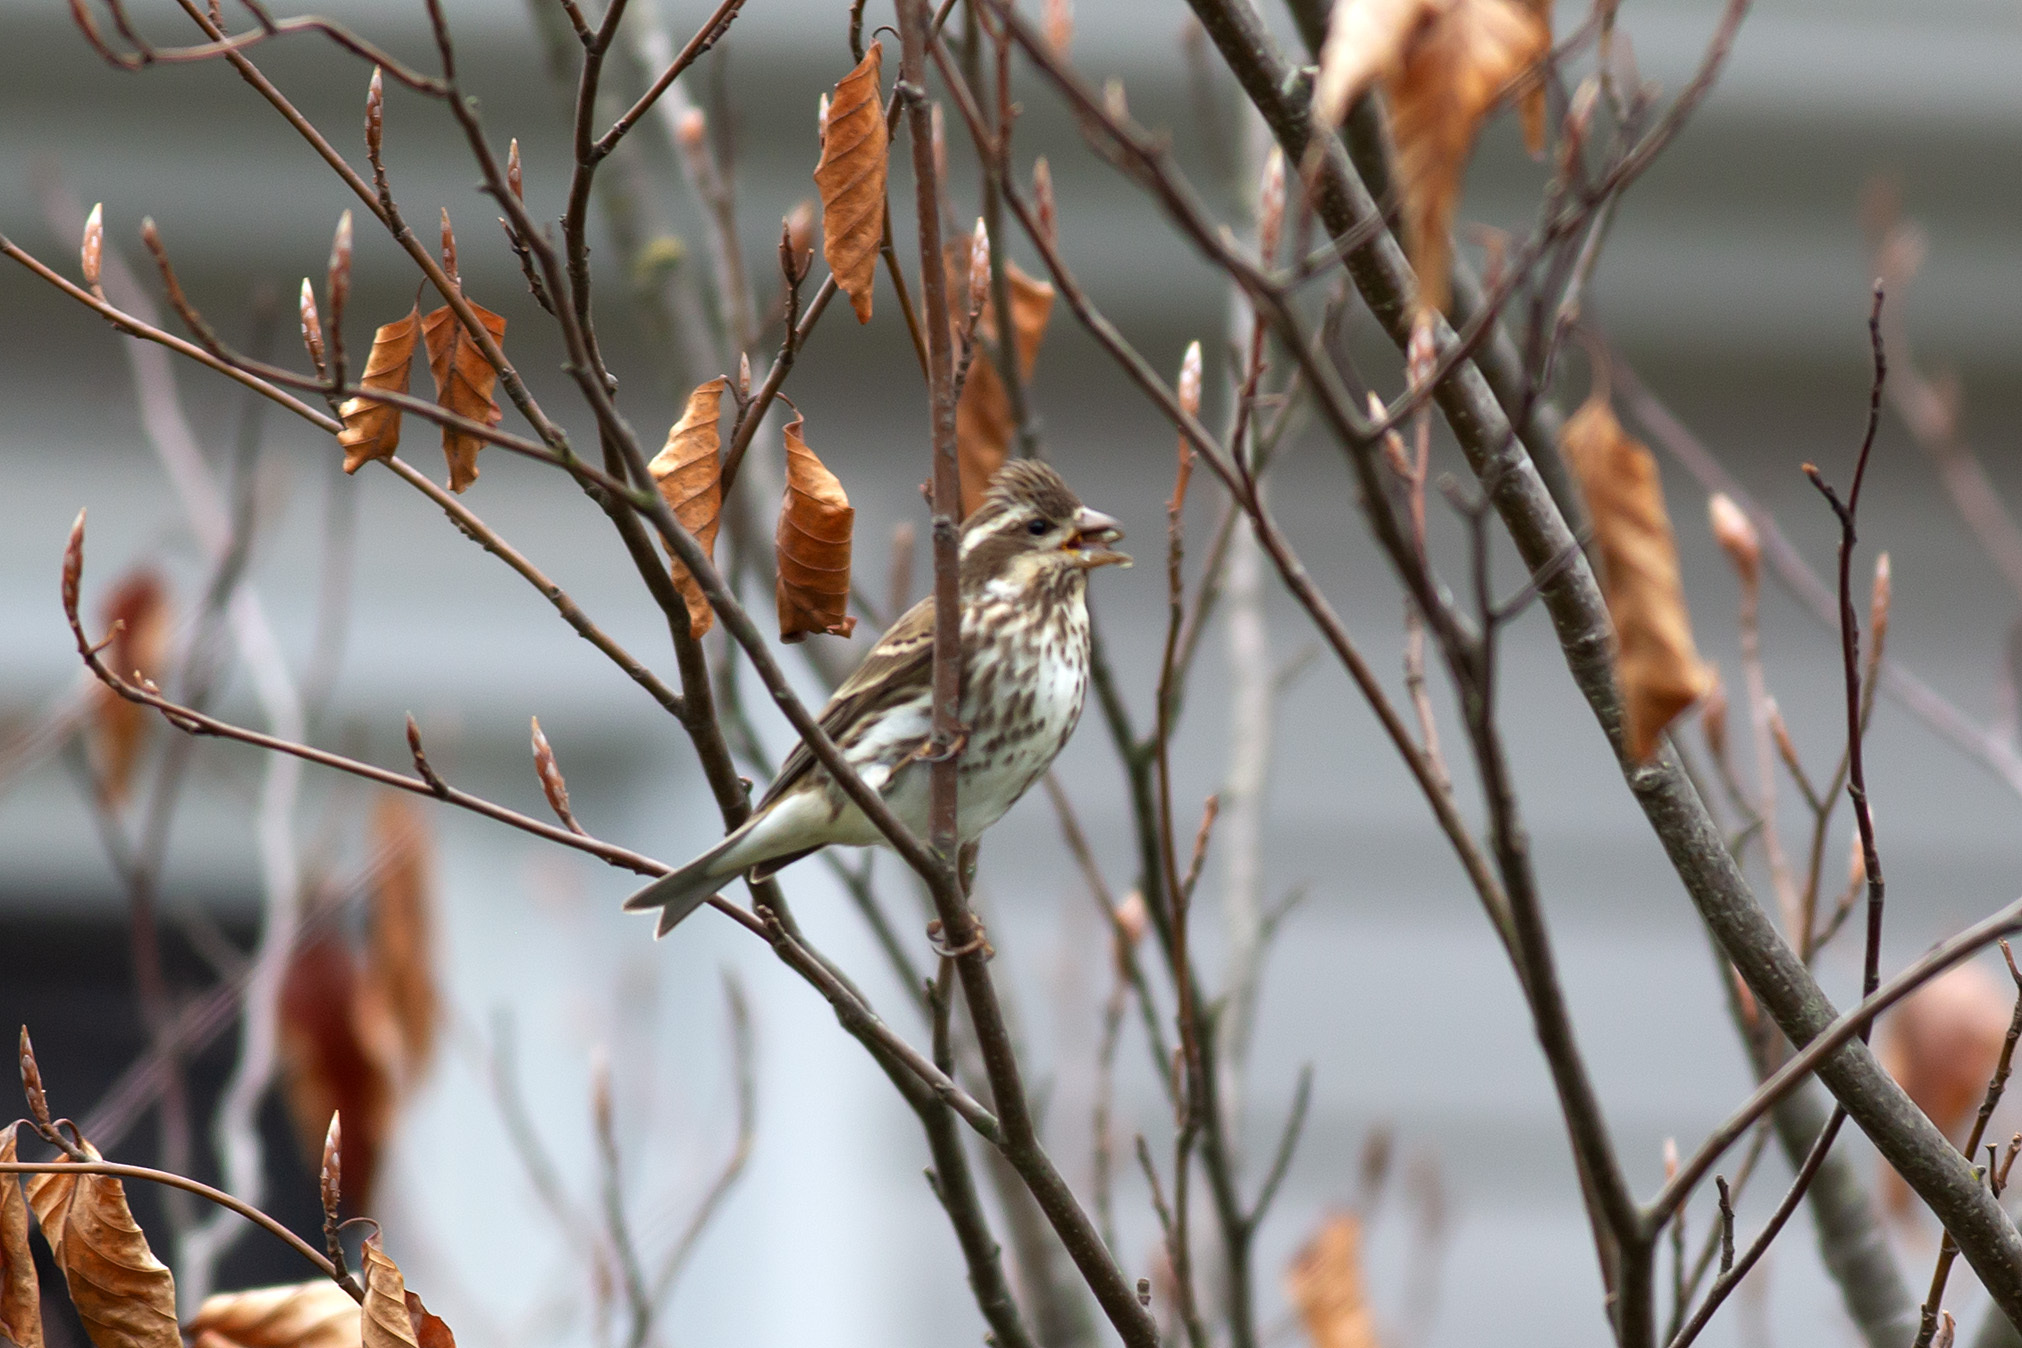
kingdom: Animalia
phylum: Chordata
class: Aves
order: Passeriformes
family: Fringillidae
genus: Haemorhous
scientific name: Haemorhous purpureus
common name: Purple finch
